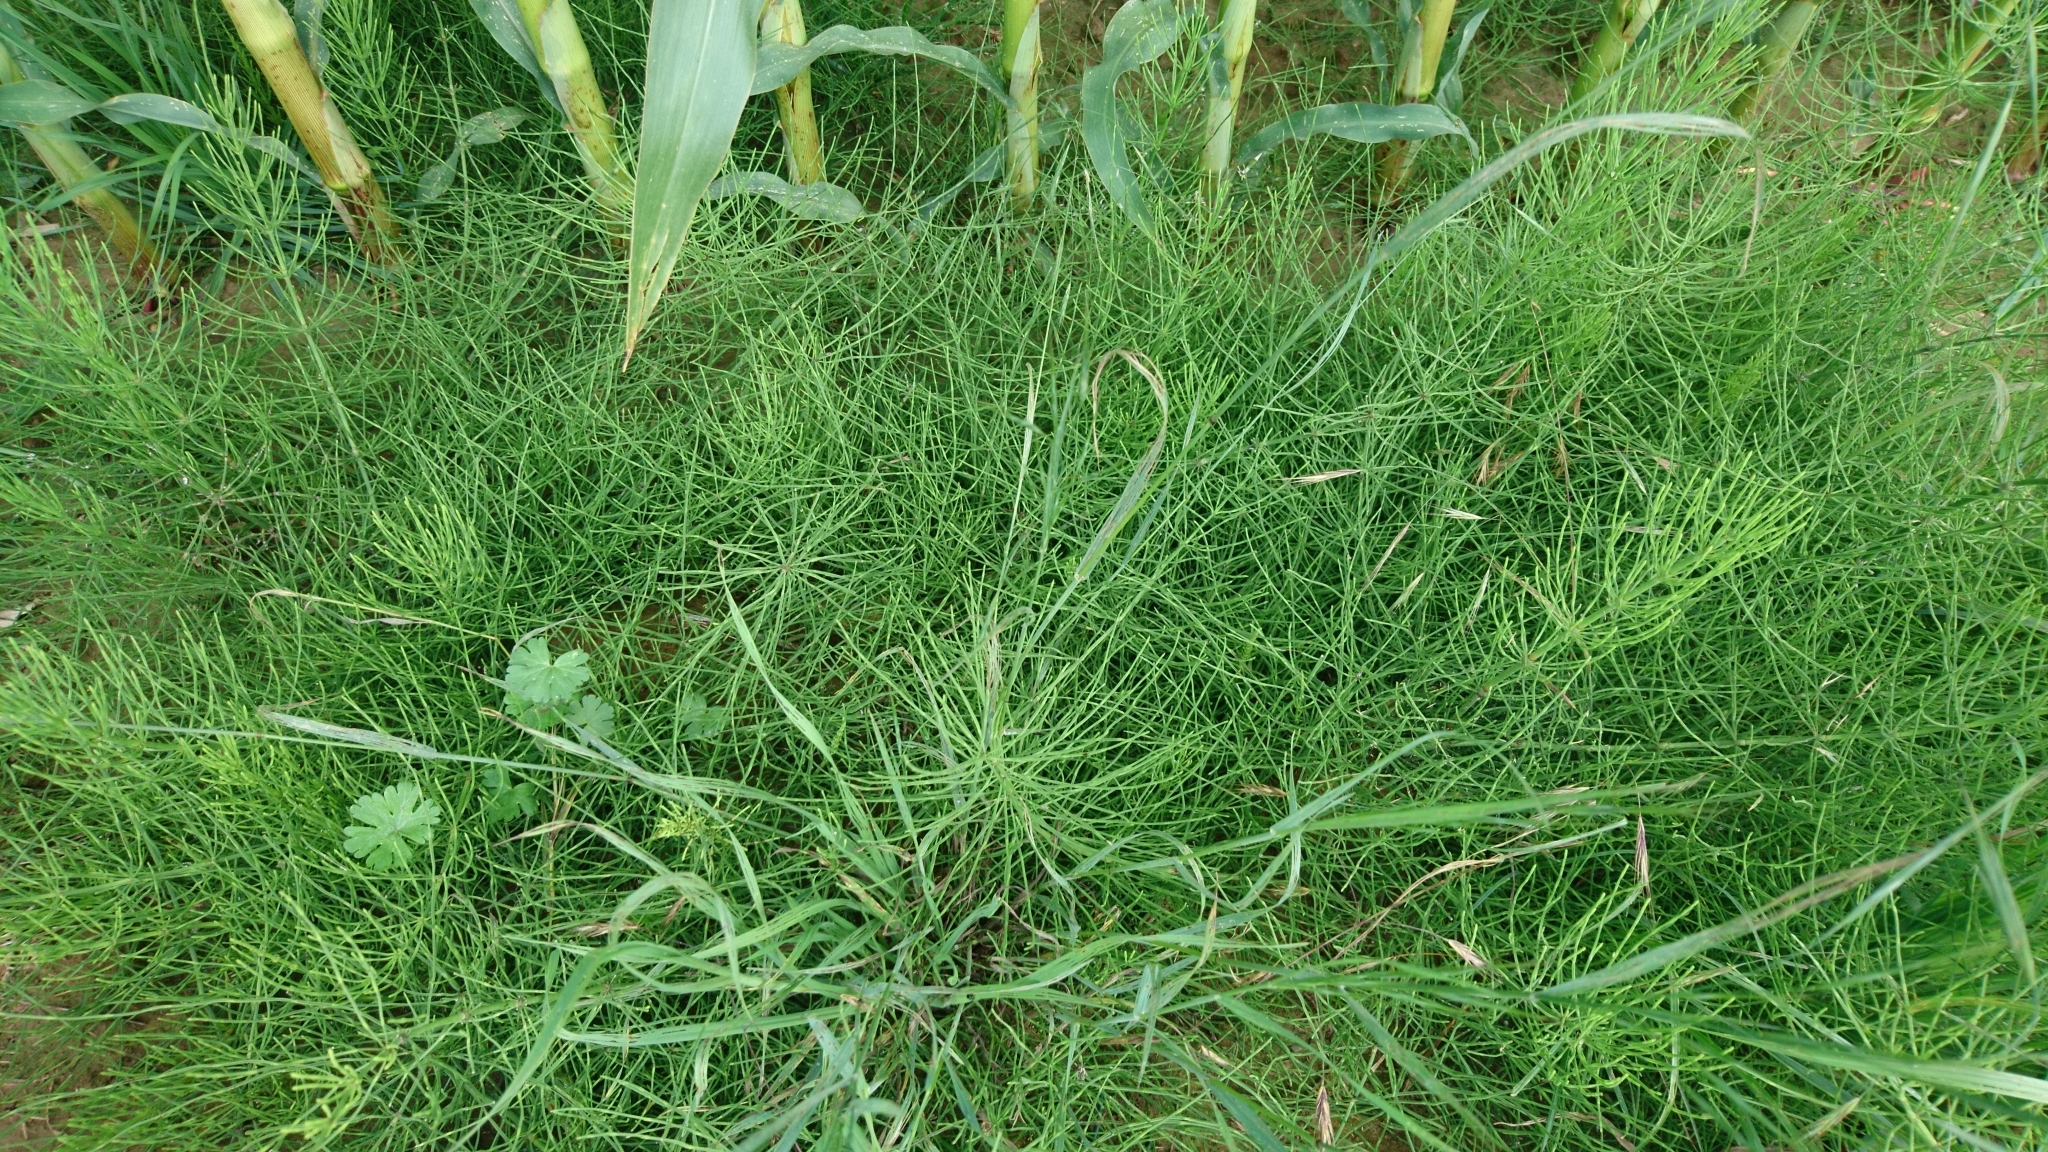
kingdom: Plantae
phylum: Tracheophyta
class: Polypodiopsida
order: Equisetales
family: Equisetaceae
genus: Equisetum
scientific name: Equisetum arvense
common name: Field horsetail
